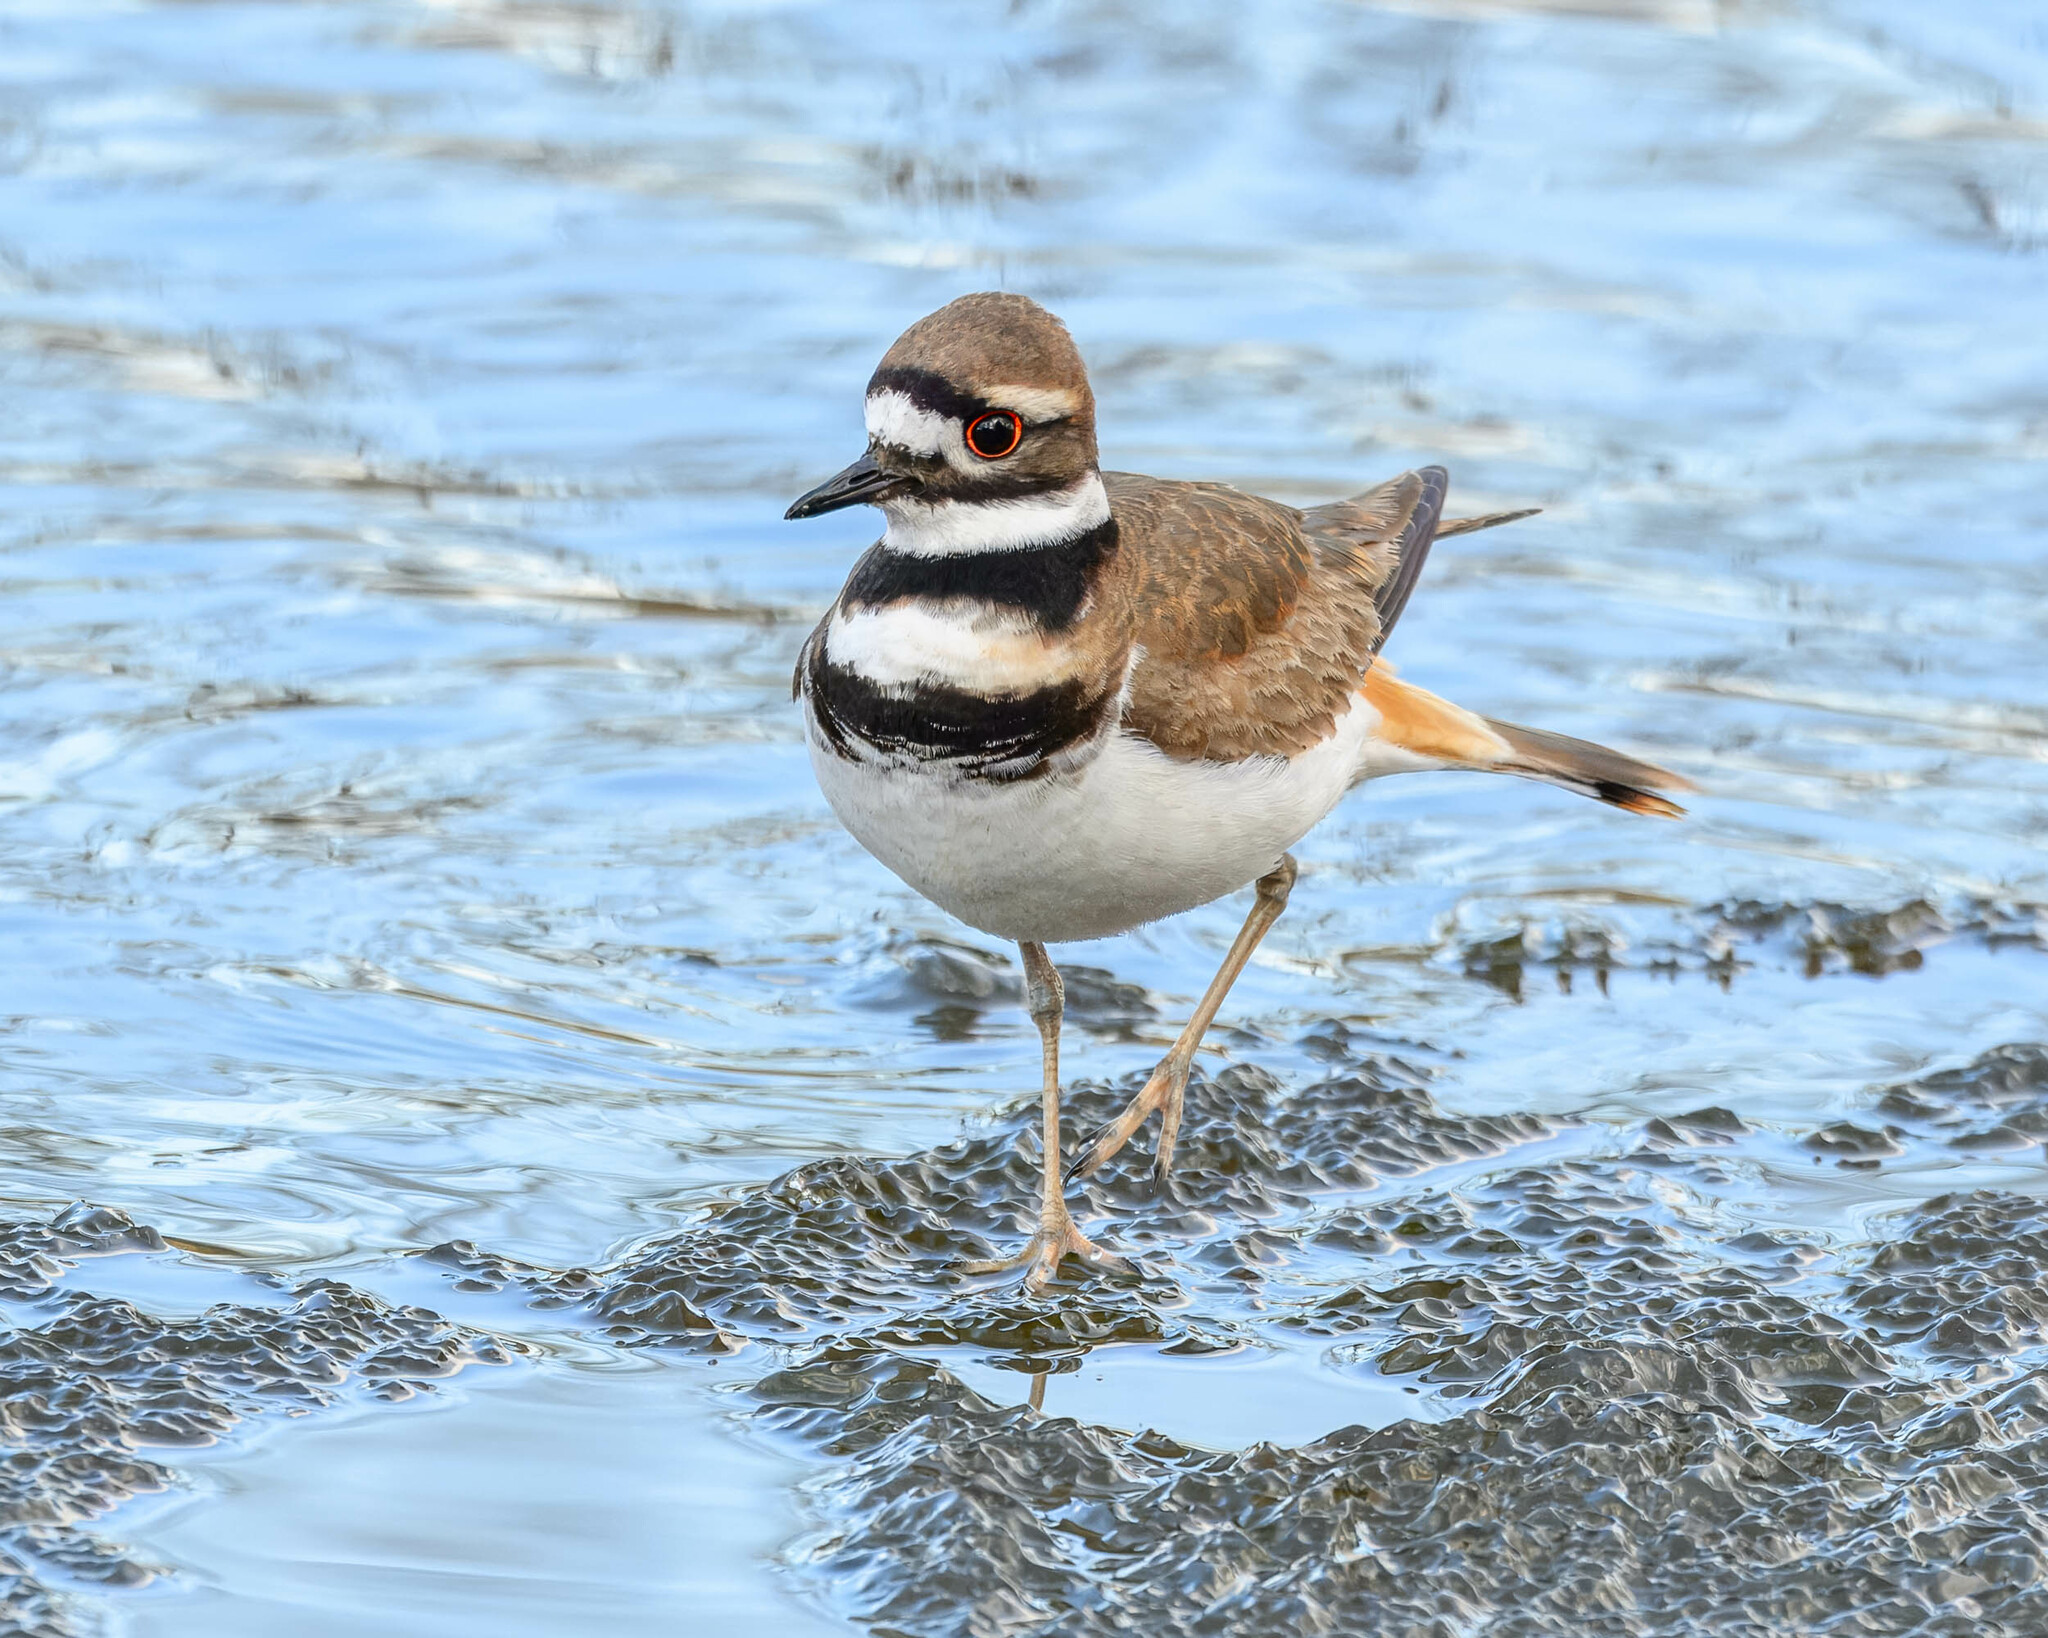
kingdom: Animalia
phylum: Chordata
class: Aves
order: Charadriiformes
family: Charadriidae
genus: Charadrius
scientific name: Charadrius vociferus
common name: Killdeer
